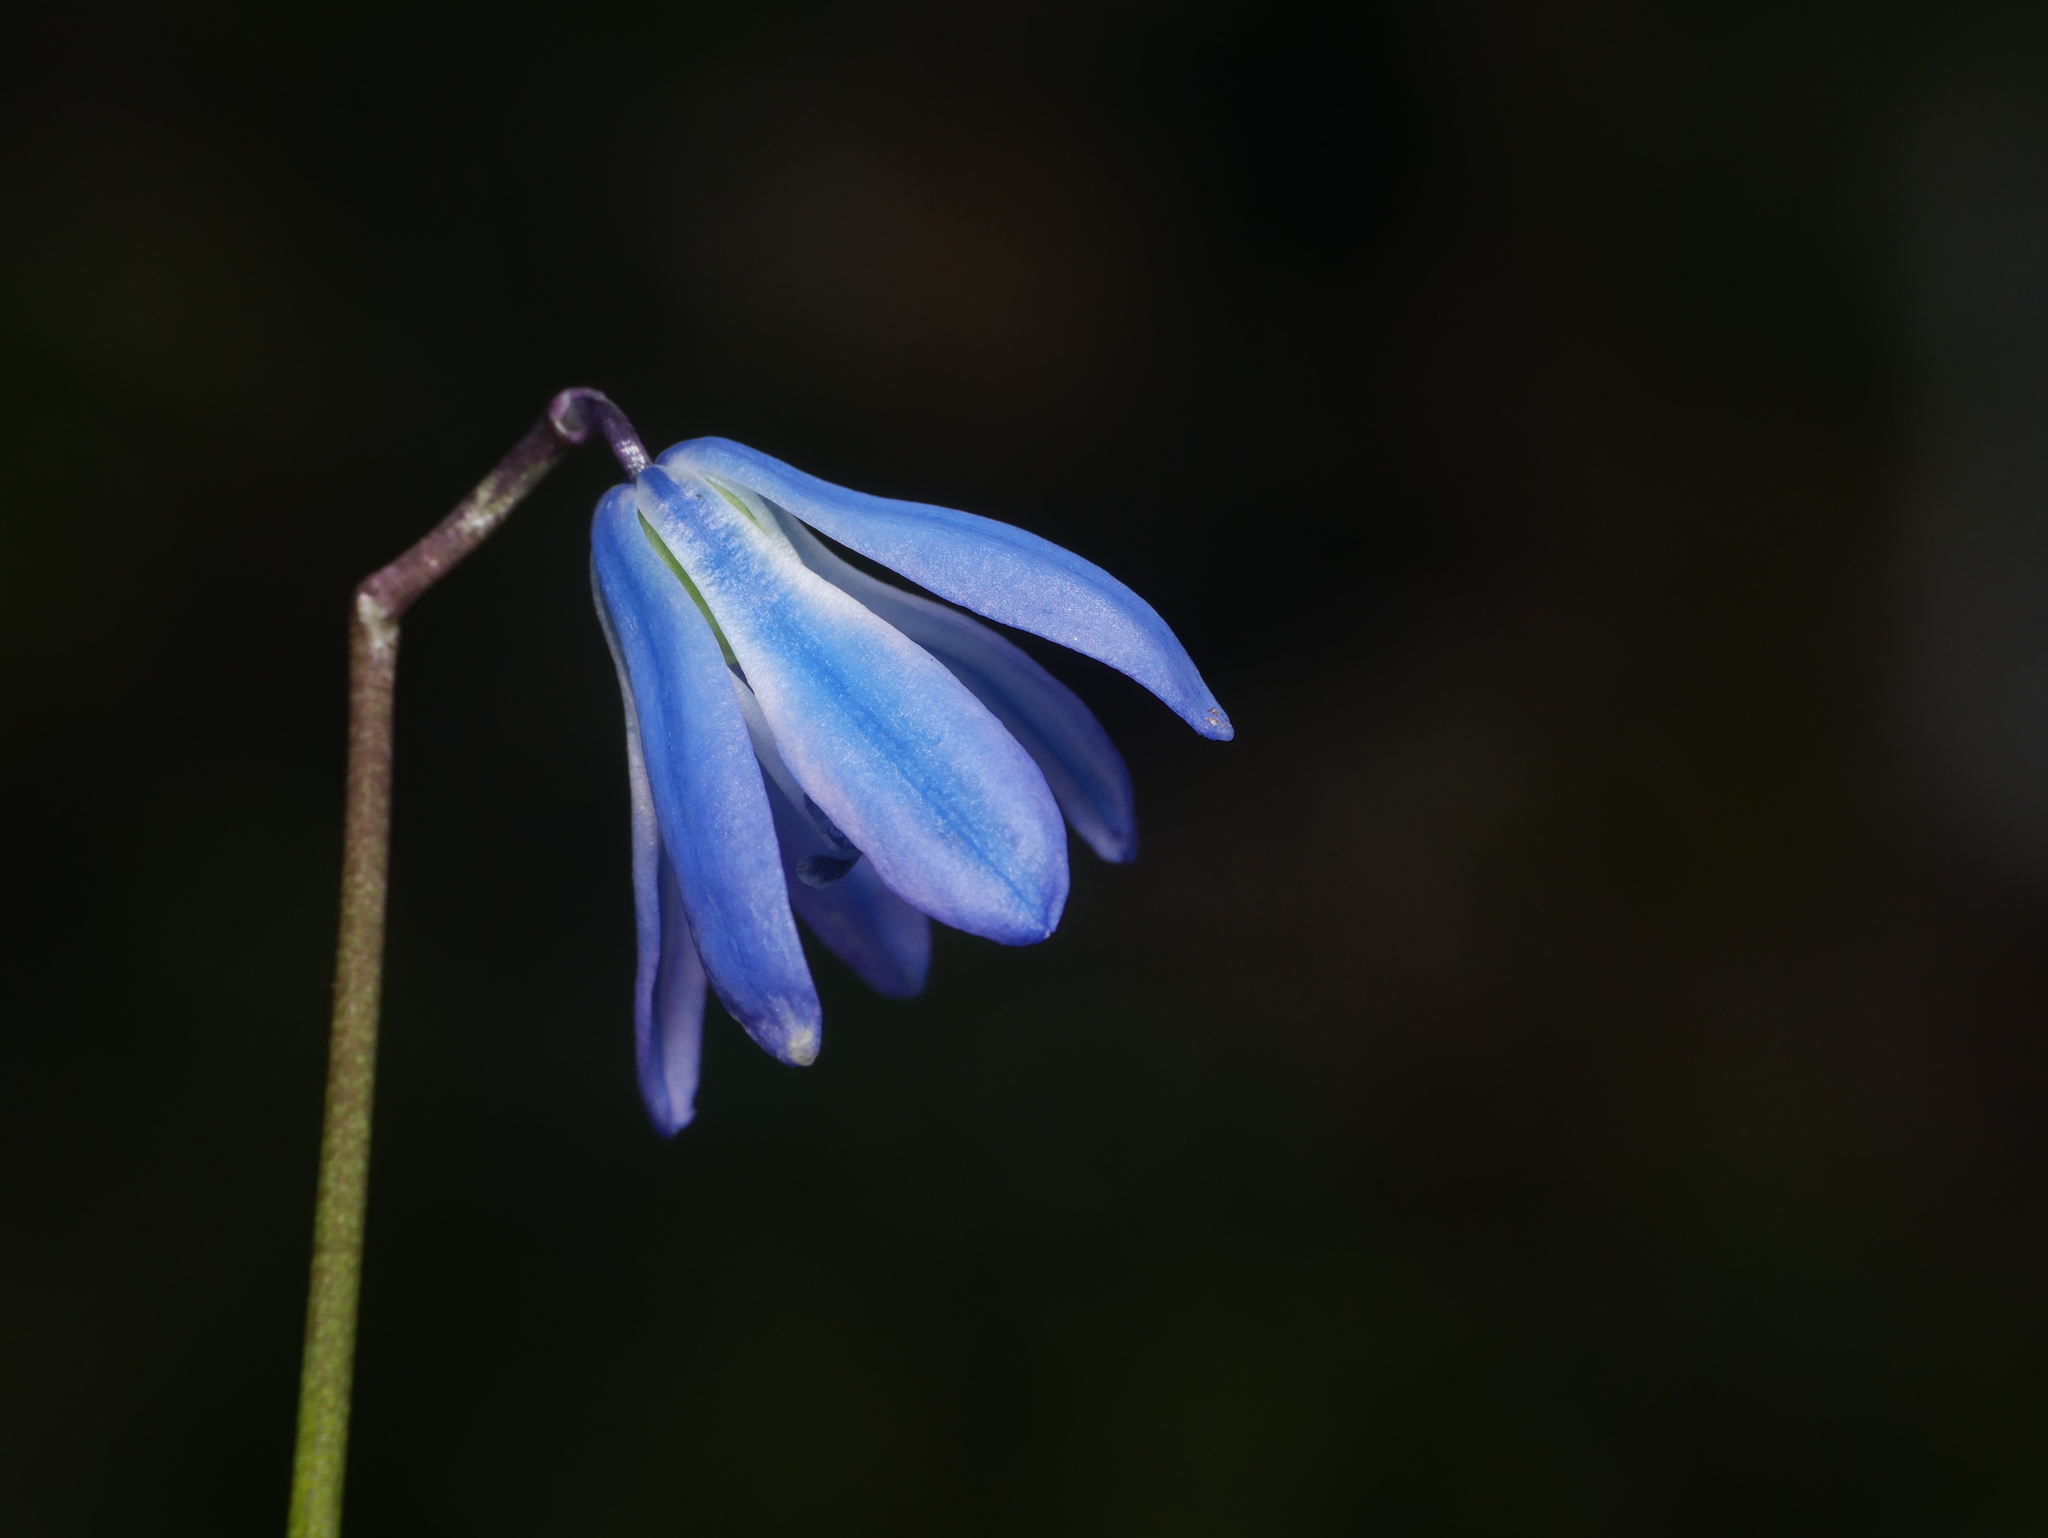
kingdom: Plantae
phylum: Tracheophyta
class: Liliopsida
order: Asparagales
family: Asparagaceae
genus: Scilla
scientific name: Scilla siberica
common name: Siberian squill
